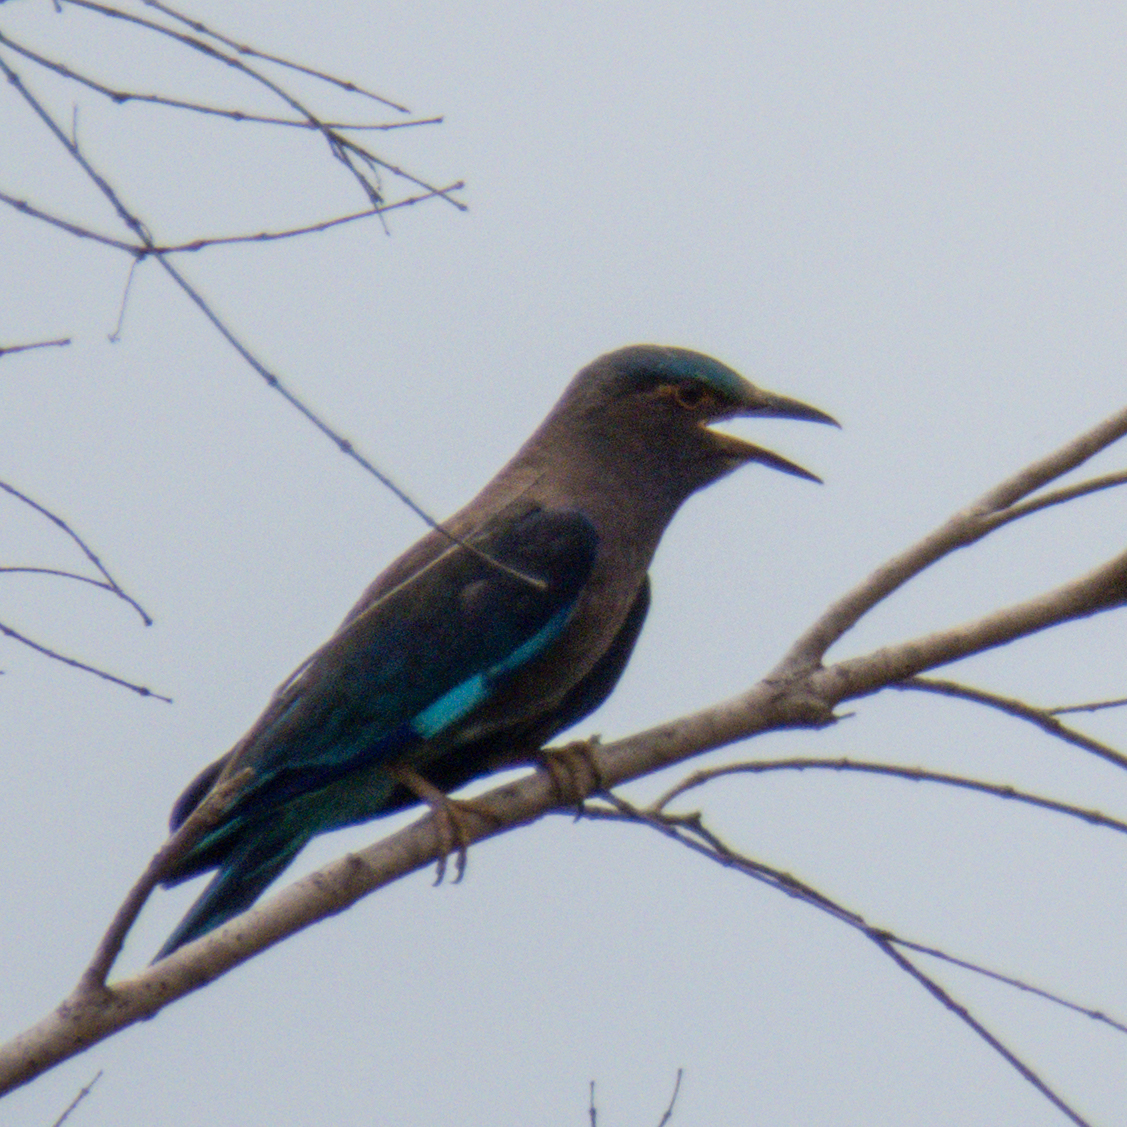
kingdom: Animalia
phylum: Chordata
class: Aves
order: Coraciiformes
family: Coraciidae
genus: Coracias
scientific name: Coracias affinis
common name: Indochinese roller
